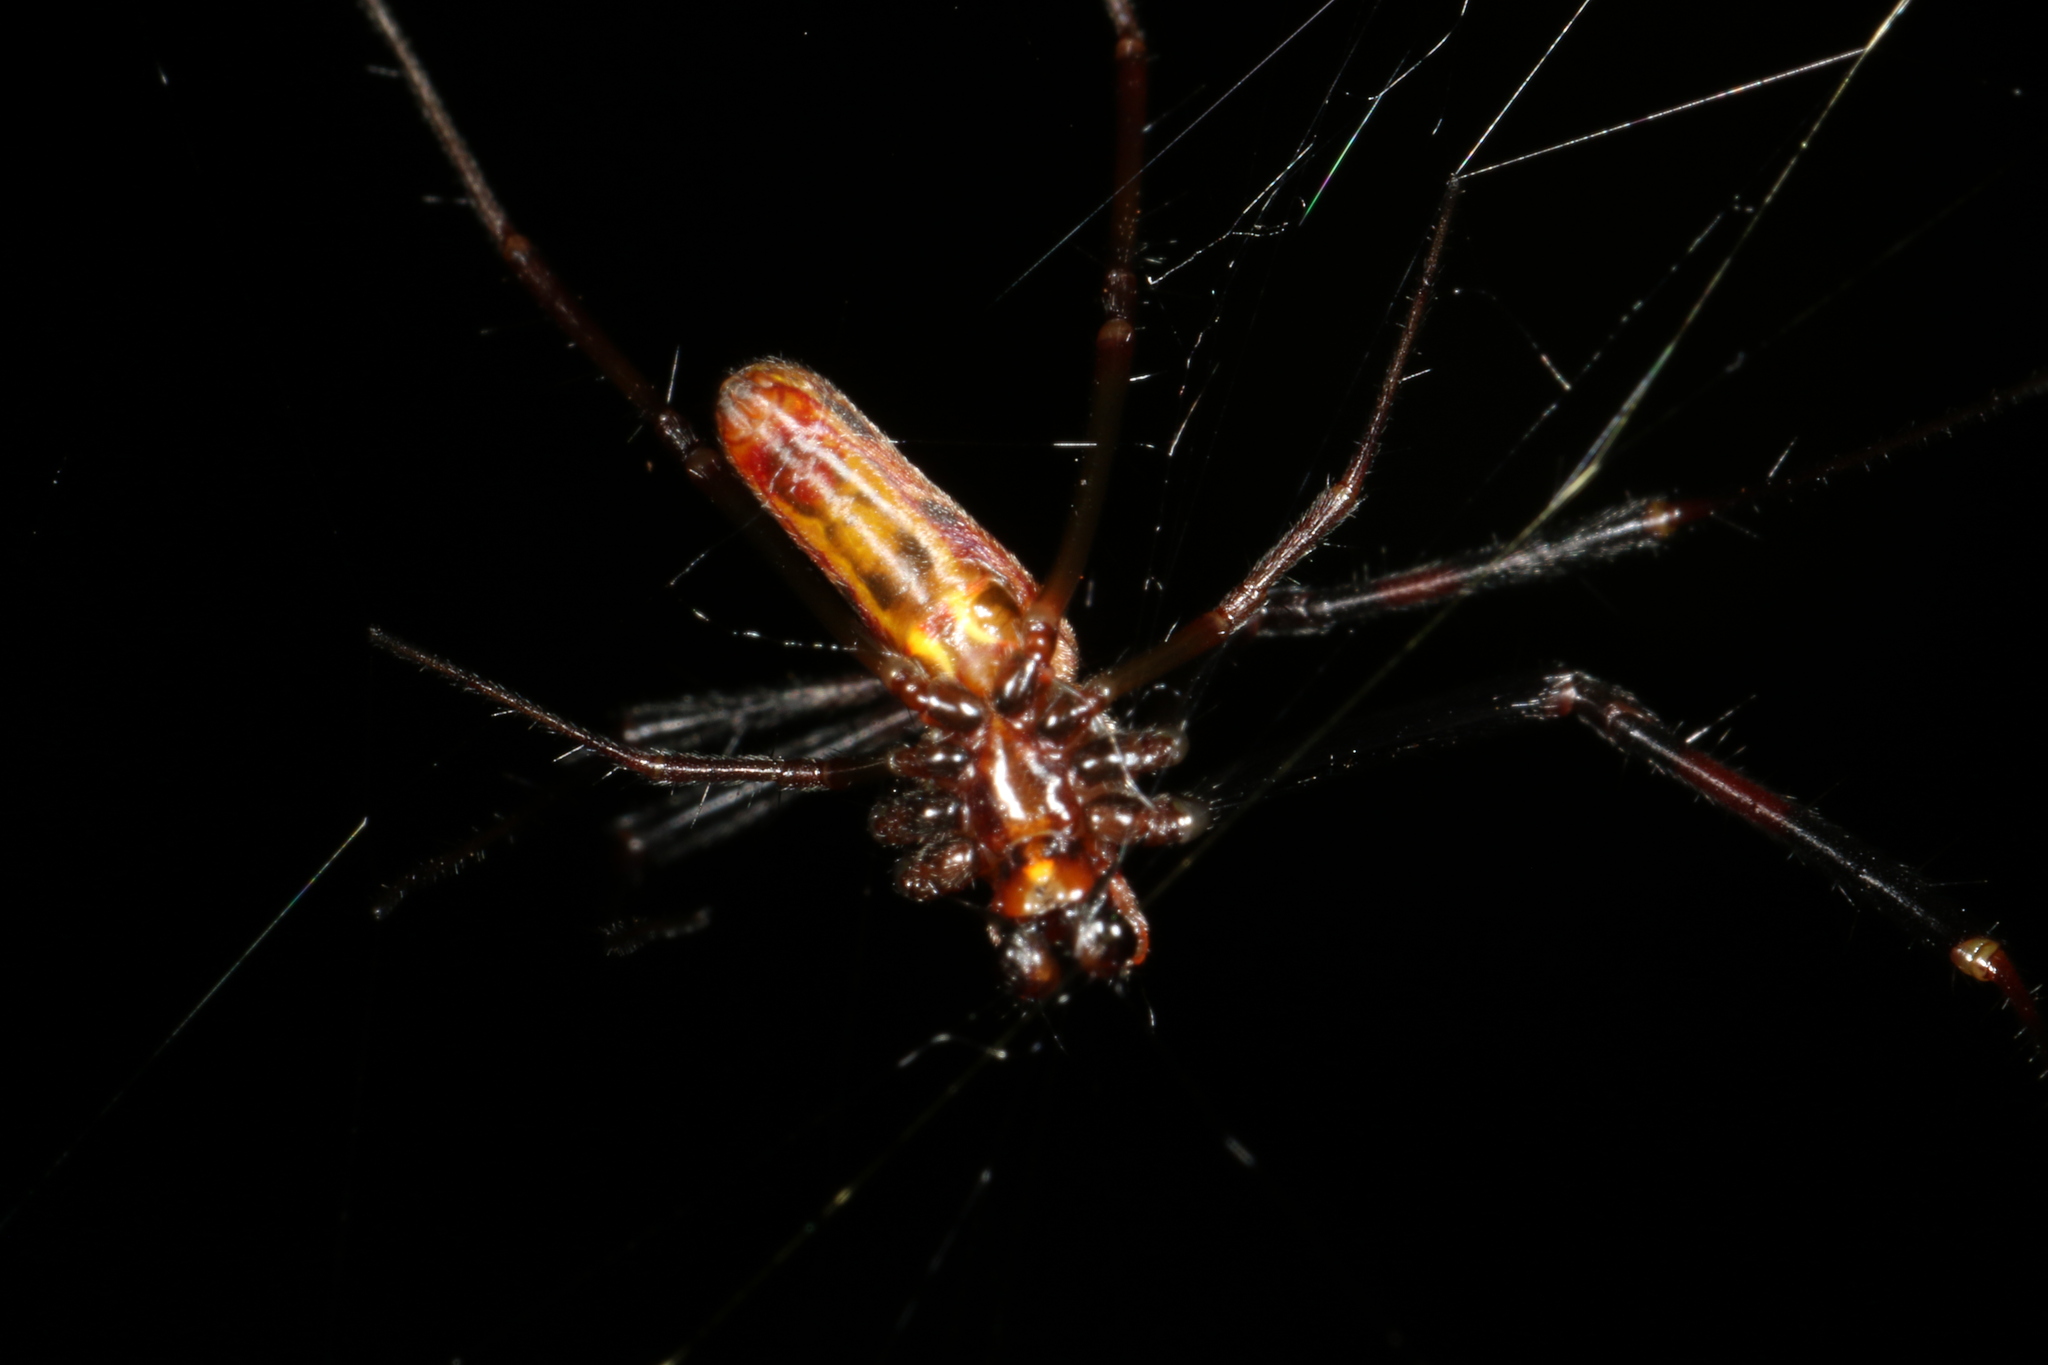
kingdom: Animalia
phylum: Arthropoda
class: Arachnida
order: Araneae
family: Araneidae
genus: Trichonephila
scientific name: Trichonephila clavipes
